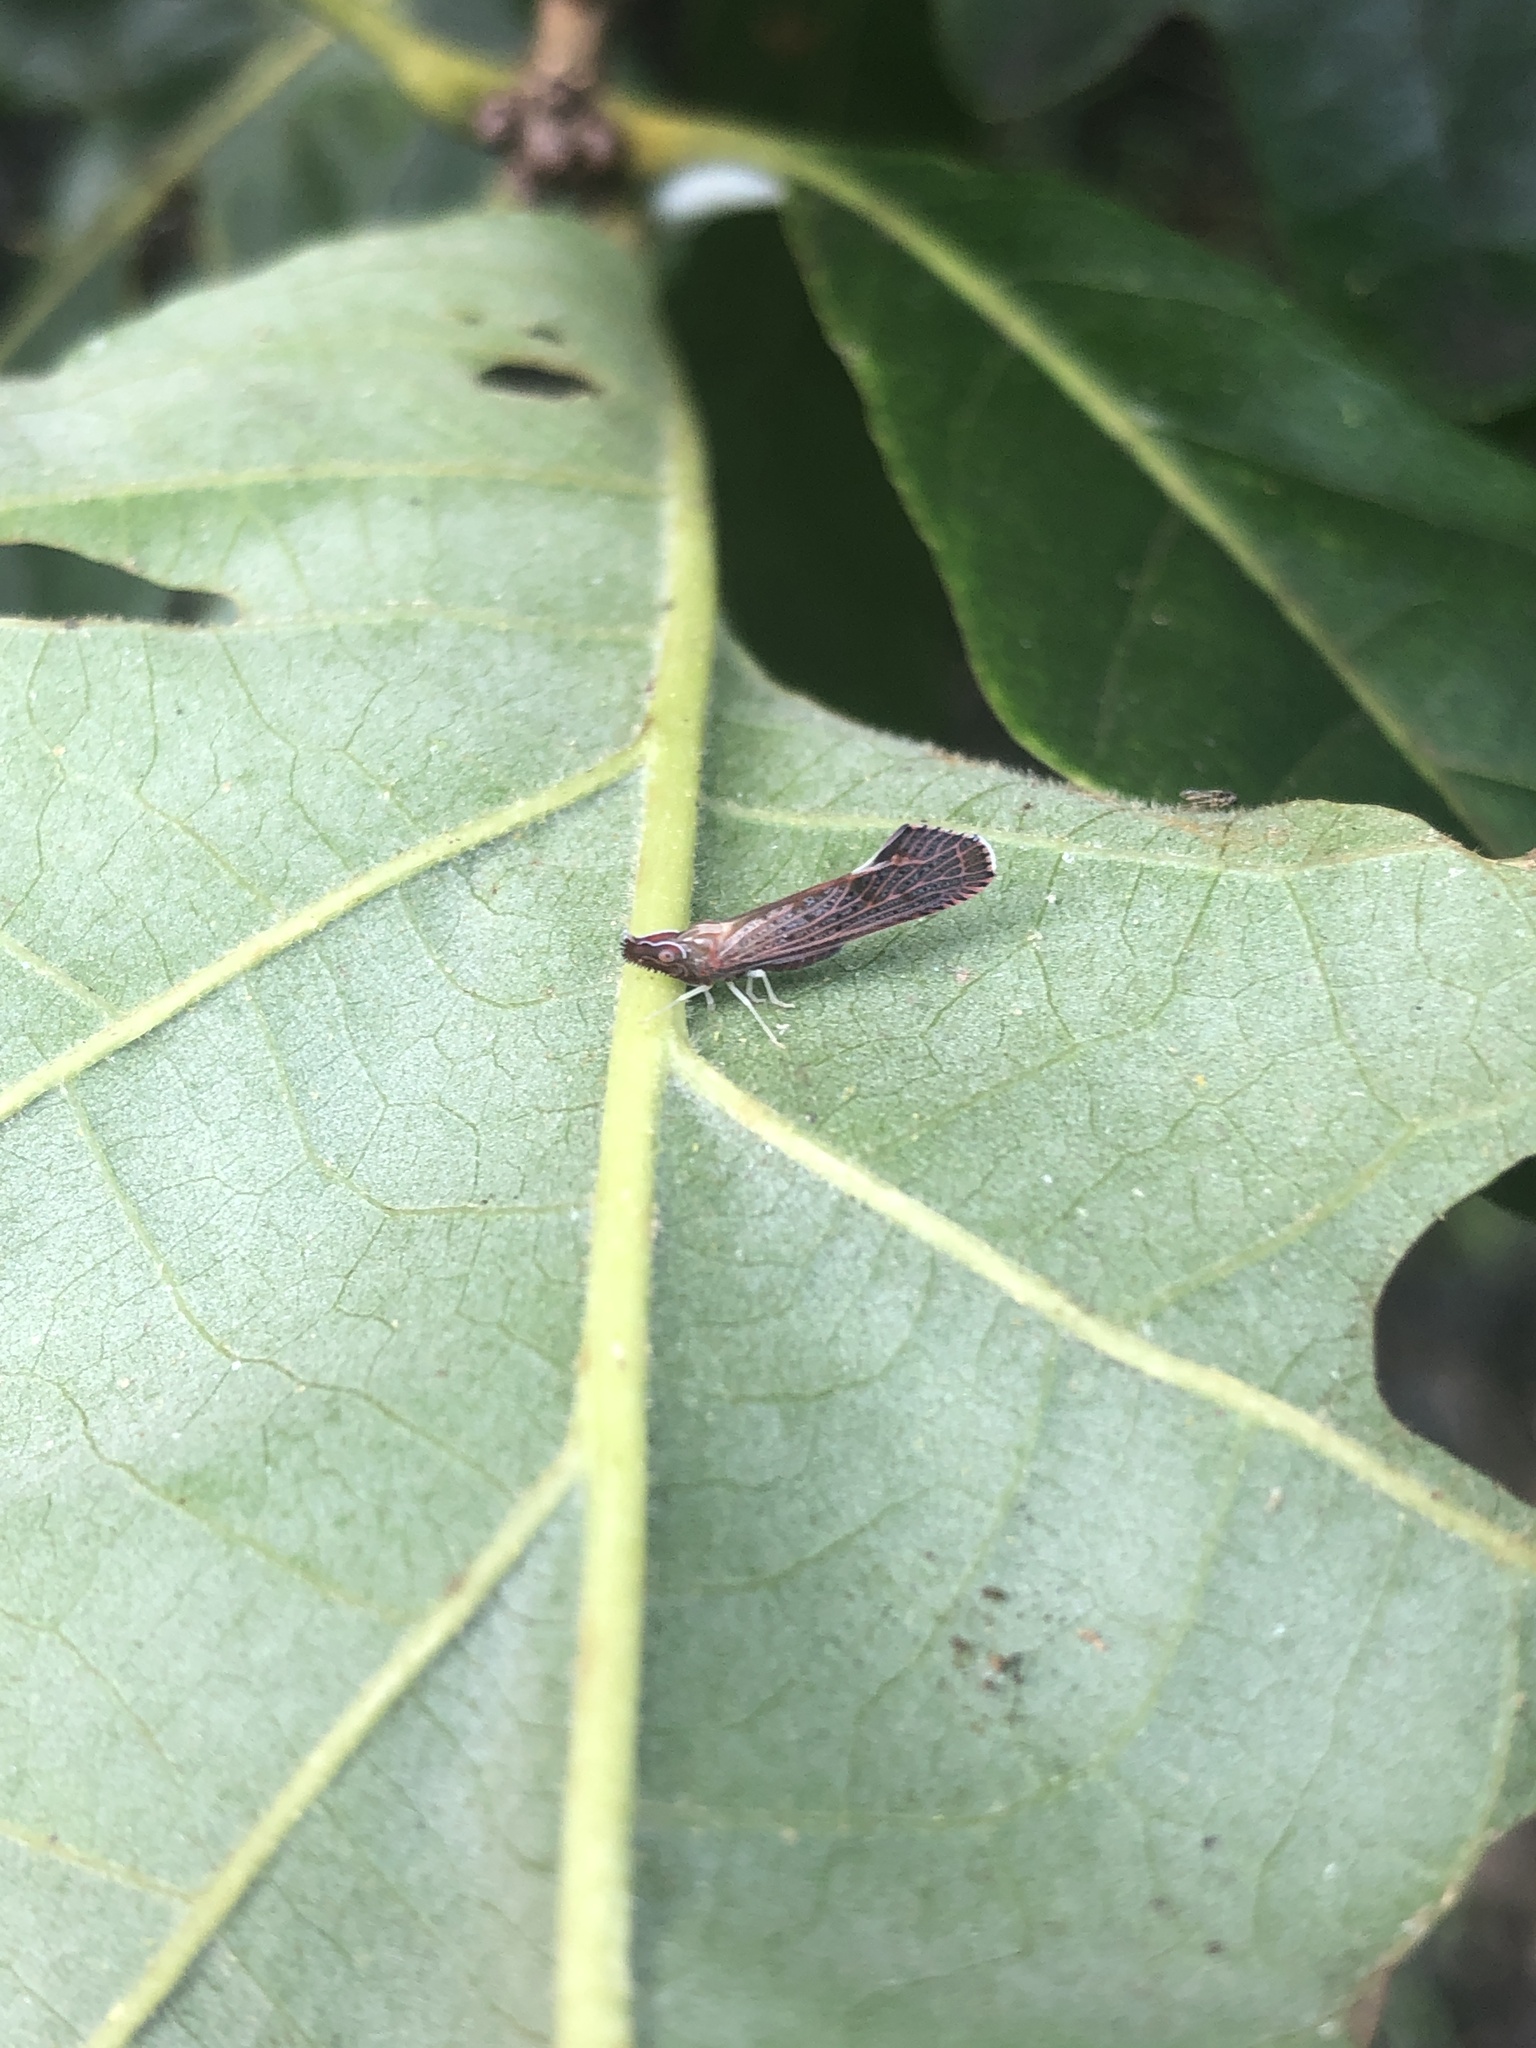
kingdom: Animalia
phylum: Arthropoda
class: Insecta
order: Hemiptera
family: Derbidae
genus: Apache
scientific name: Apache degeeri
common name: Red-fanned planthopper
